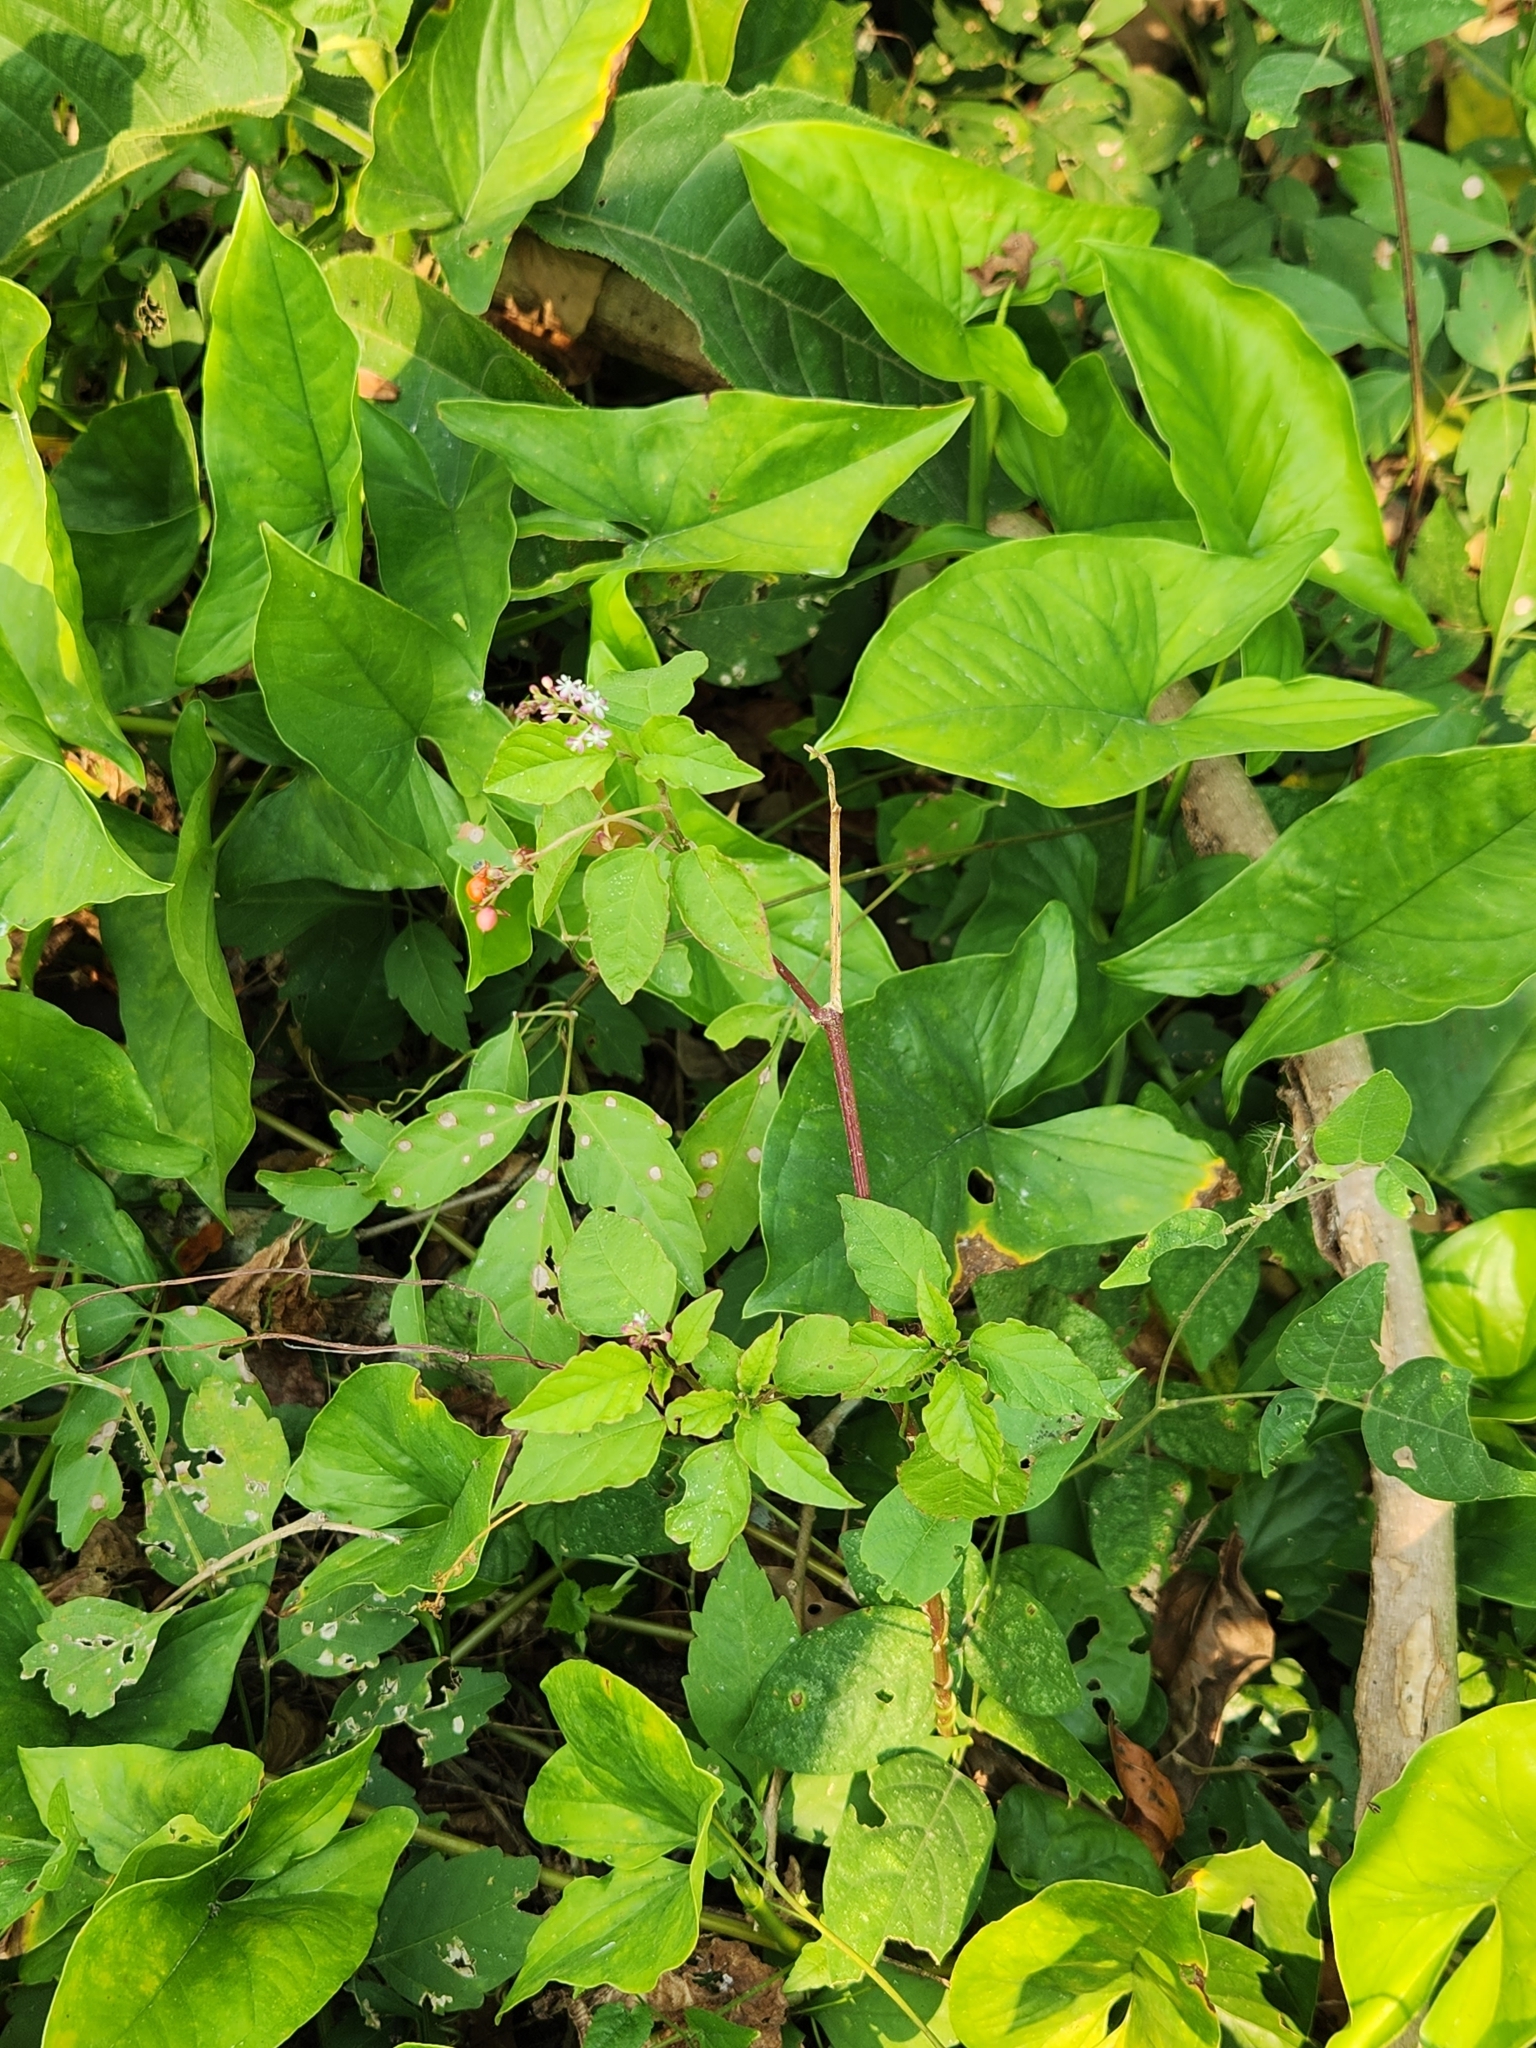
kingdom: Plantae
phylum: Tracheophyta
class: Magnoliopsida
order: Caryophyllales
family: Phytolaccaceae
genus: Rivina
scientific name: Rivina humilis
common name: Rougeplant
